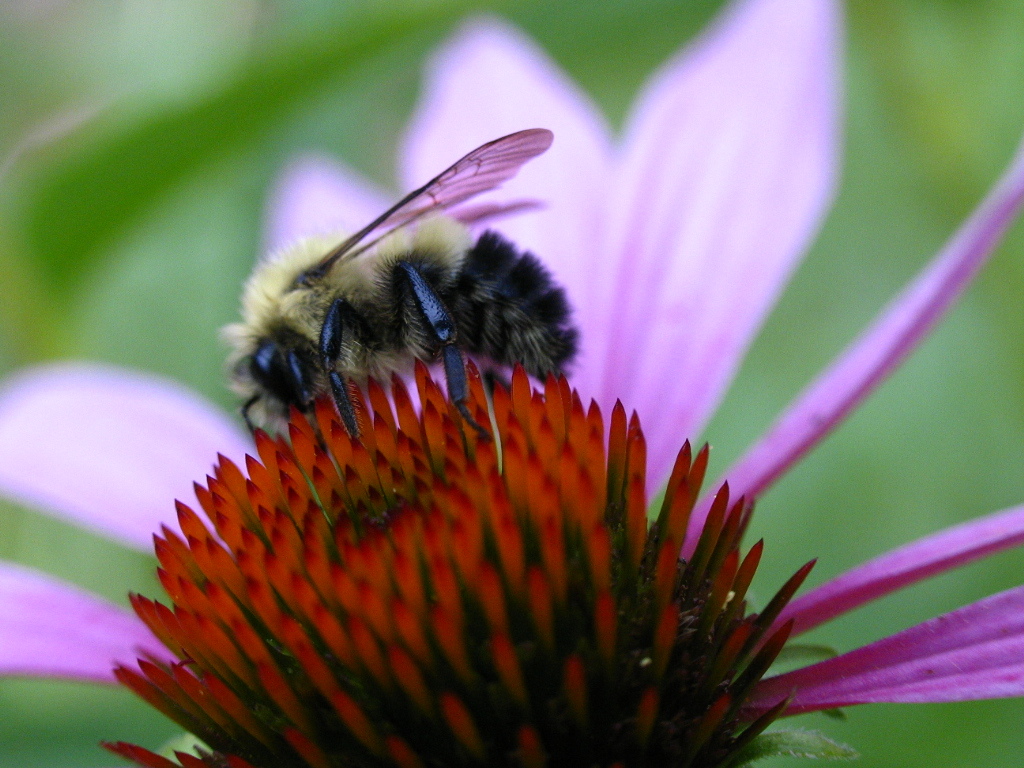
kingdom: Animalia
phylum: Arthropoda
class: Insecta
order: Hymenoptera
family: Apidae
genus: Pyrobombus
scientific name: Pyrobombus
